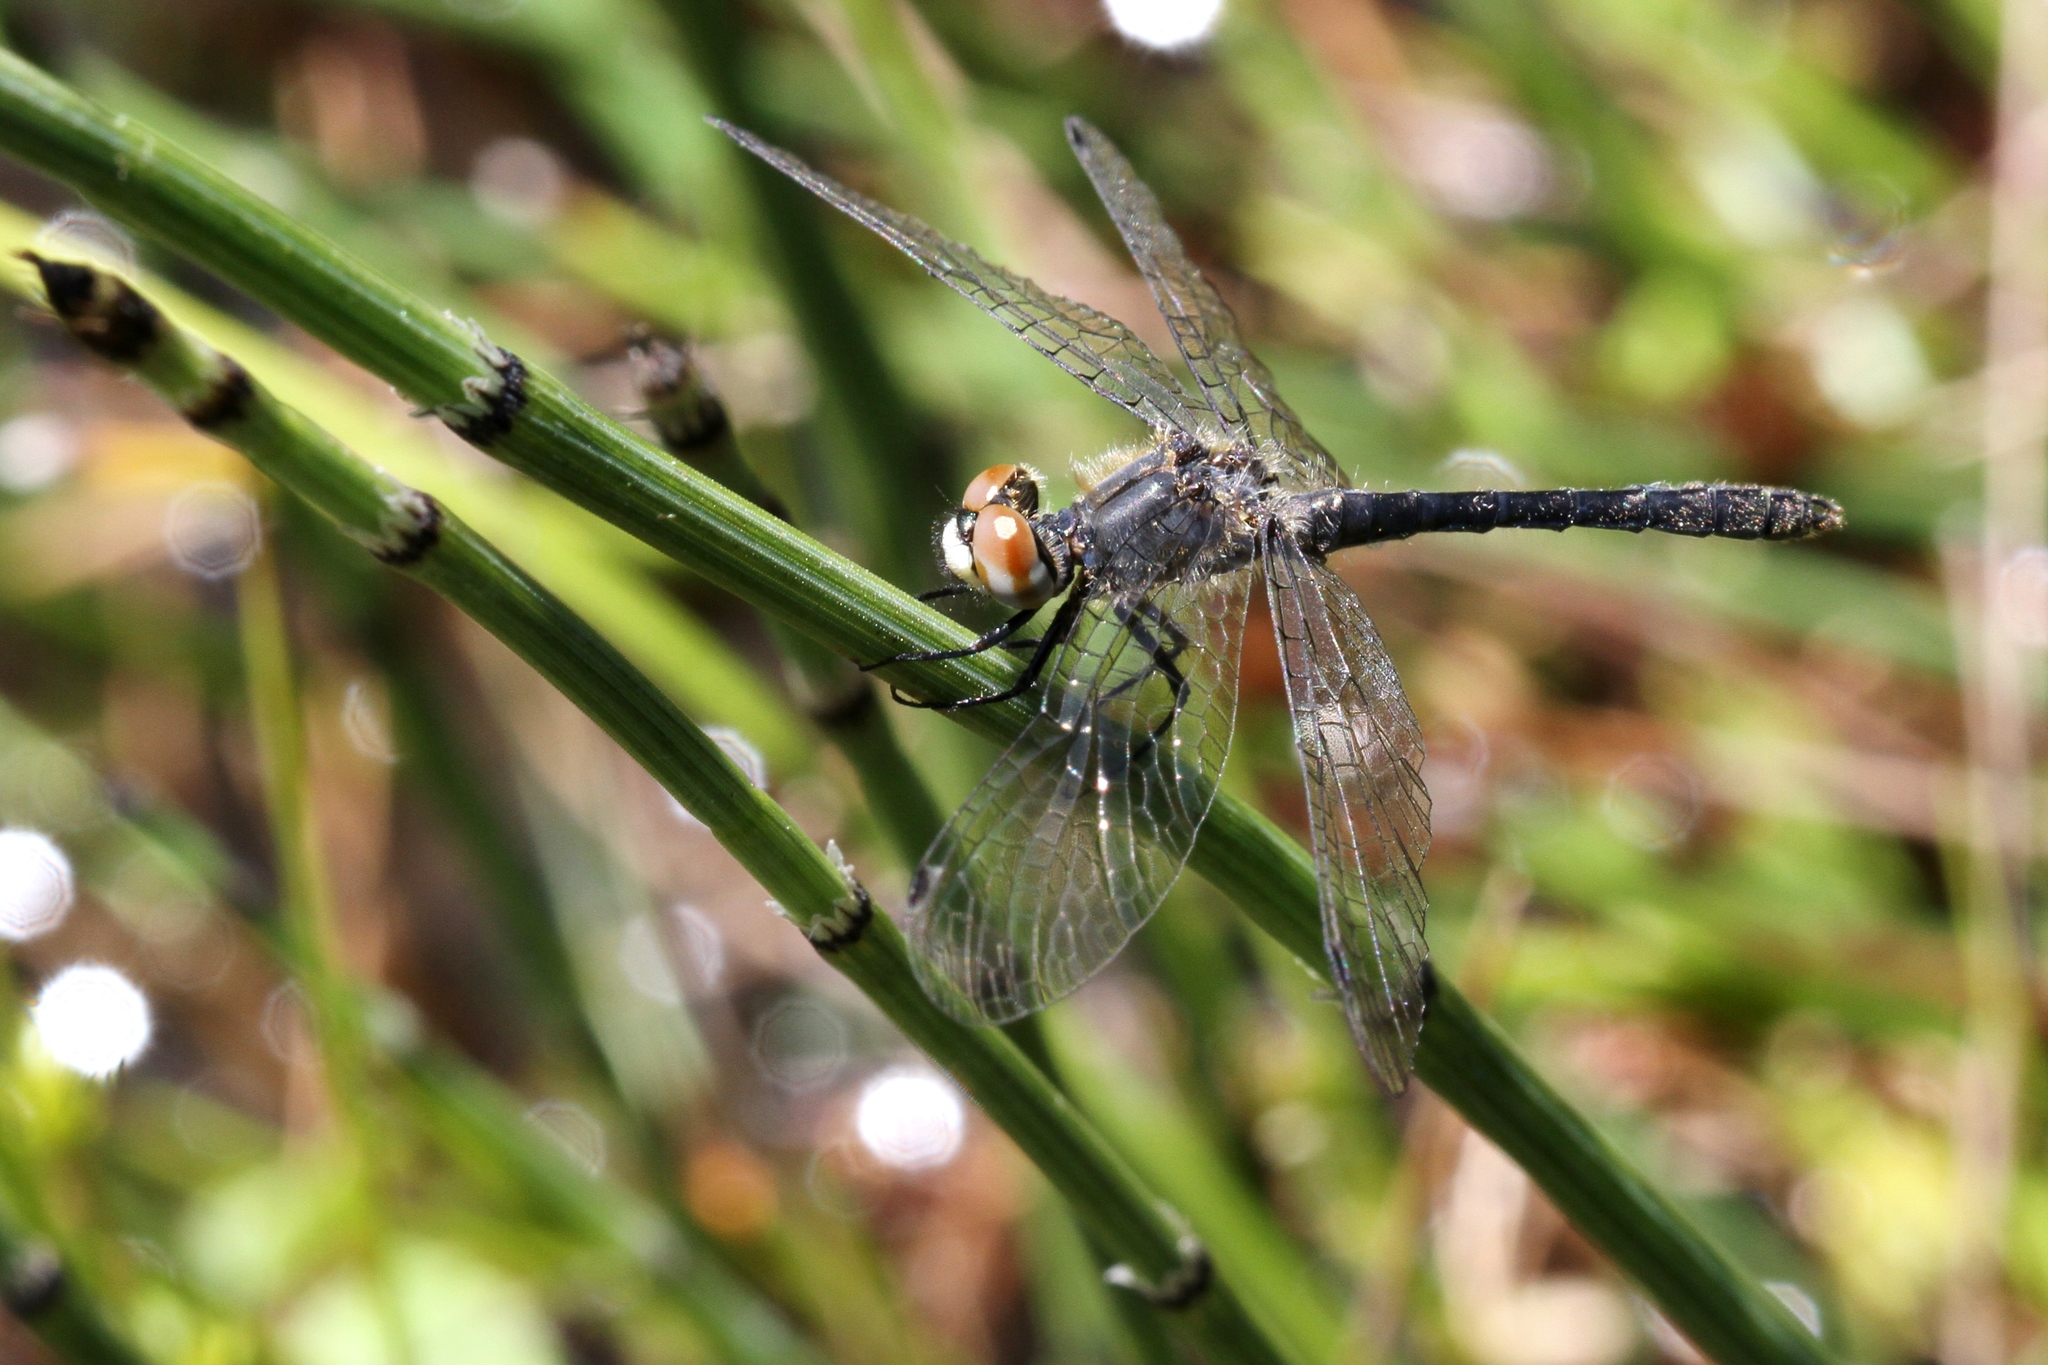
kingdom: Animalia
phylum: Arthropoda
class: Insecta
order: Odonata
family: Libellulidae
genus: Nannothemis
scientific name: Nannothemis bella
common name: Elfin skimmer
